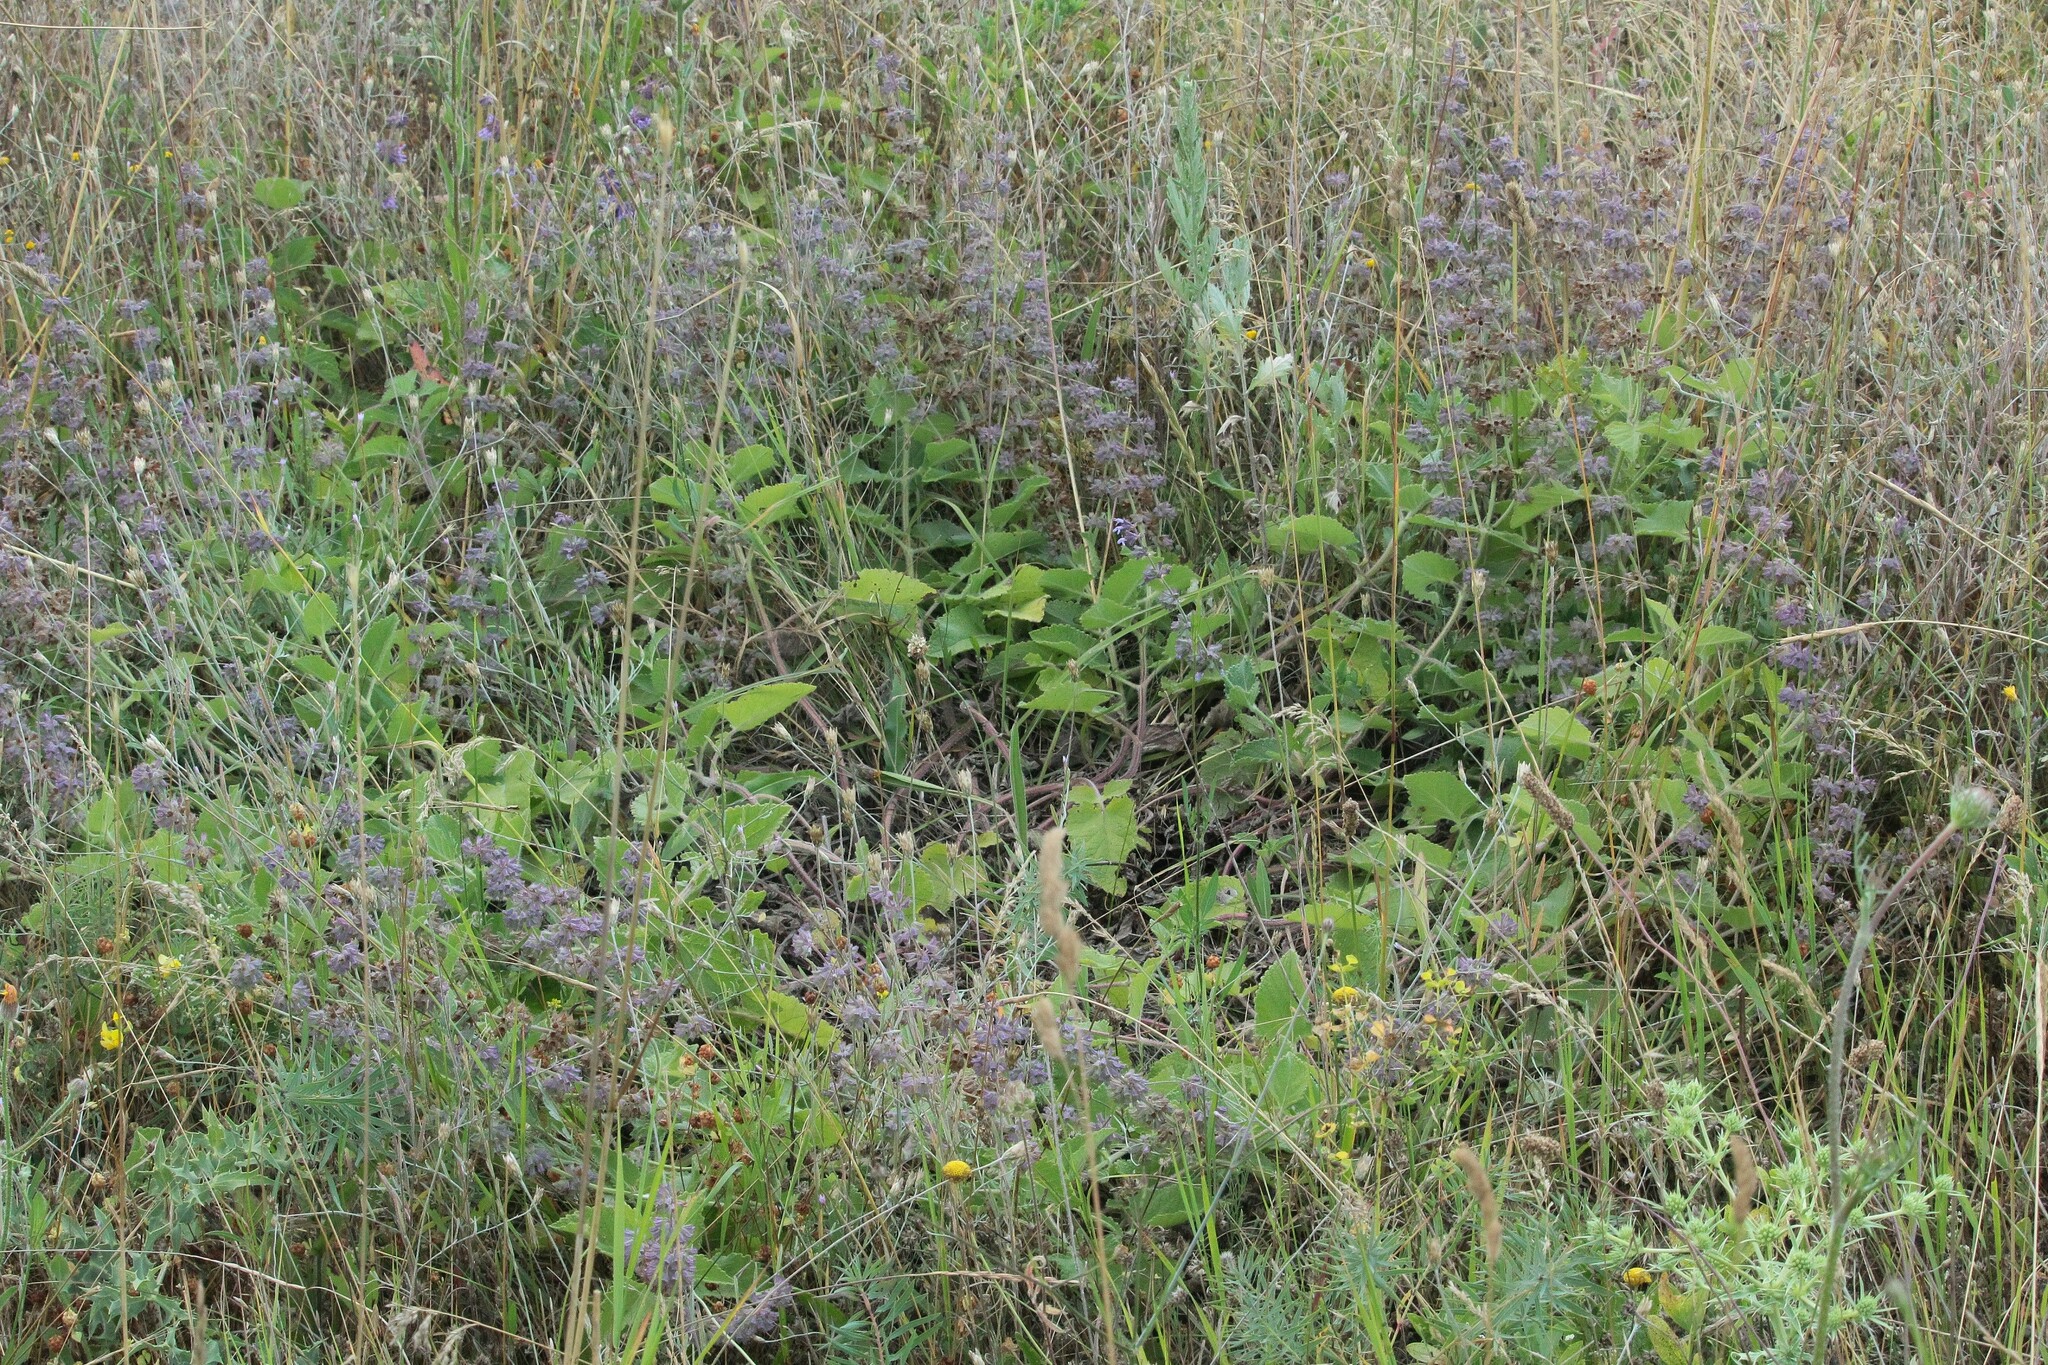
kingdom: Plantae
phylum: Tracheophyta
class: Magnoliopsida
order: Lamiales
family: Lamiaceae
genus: Stachys
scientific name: Stachys cretica
